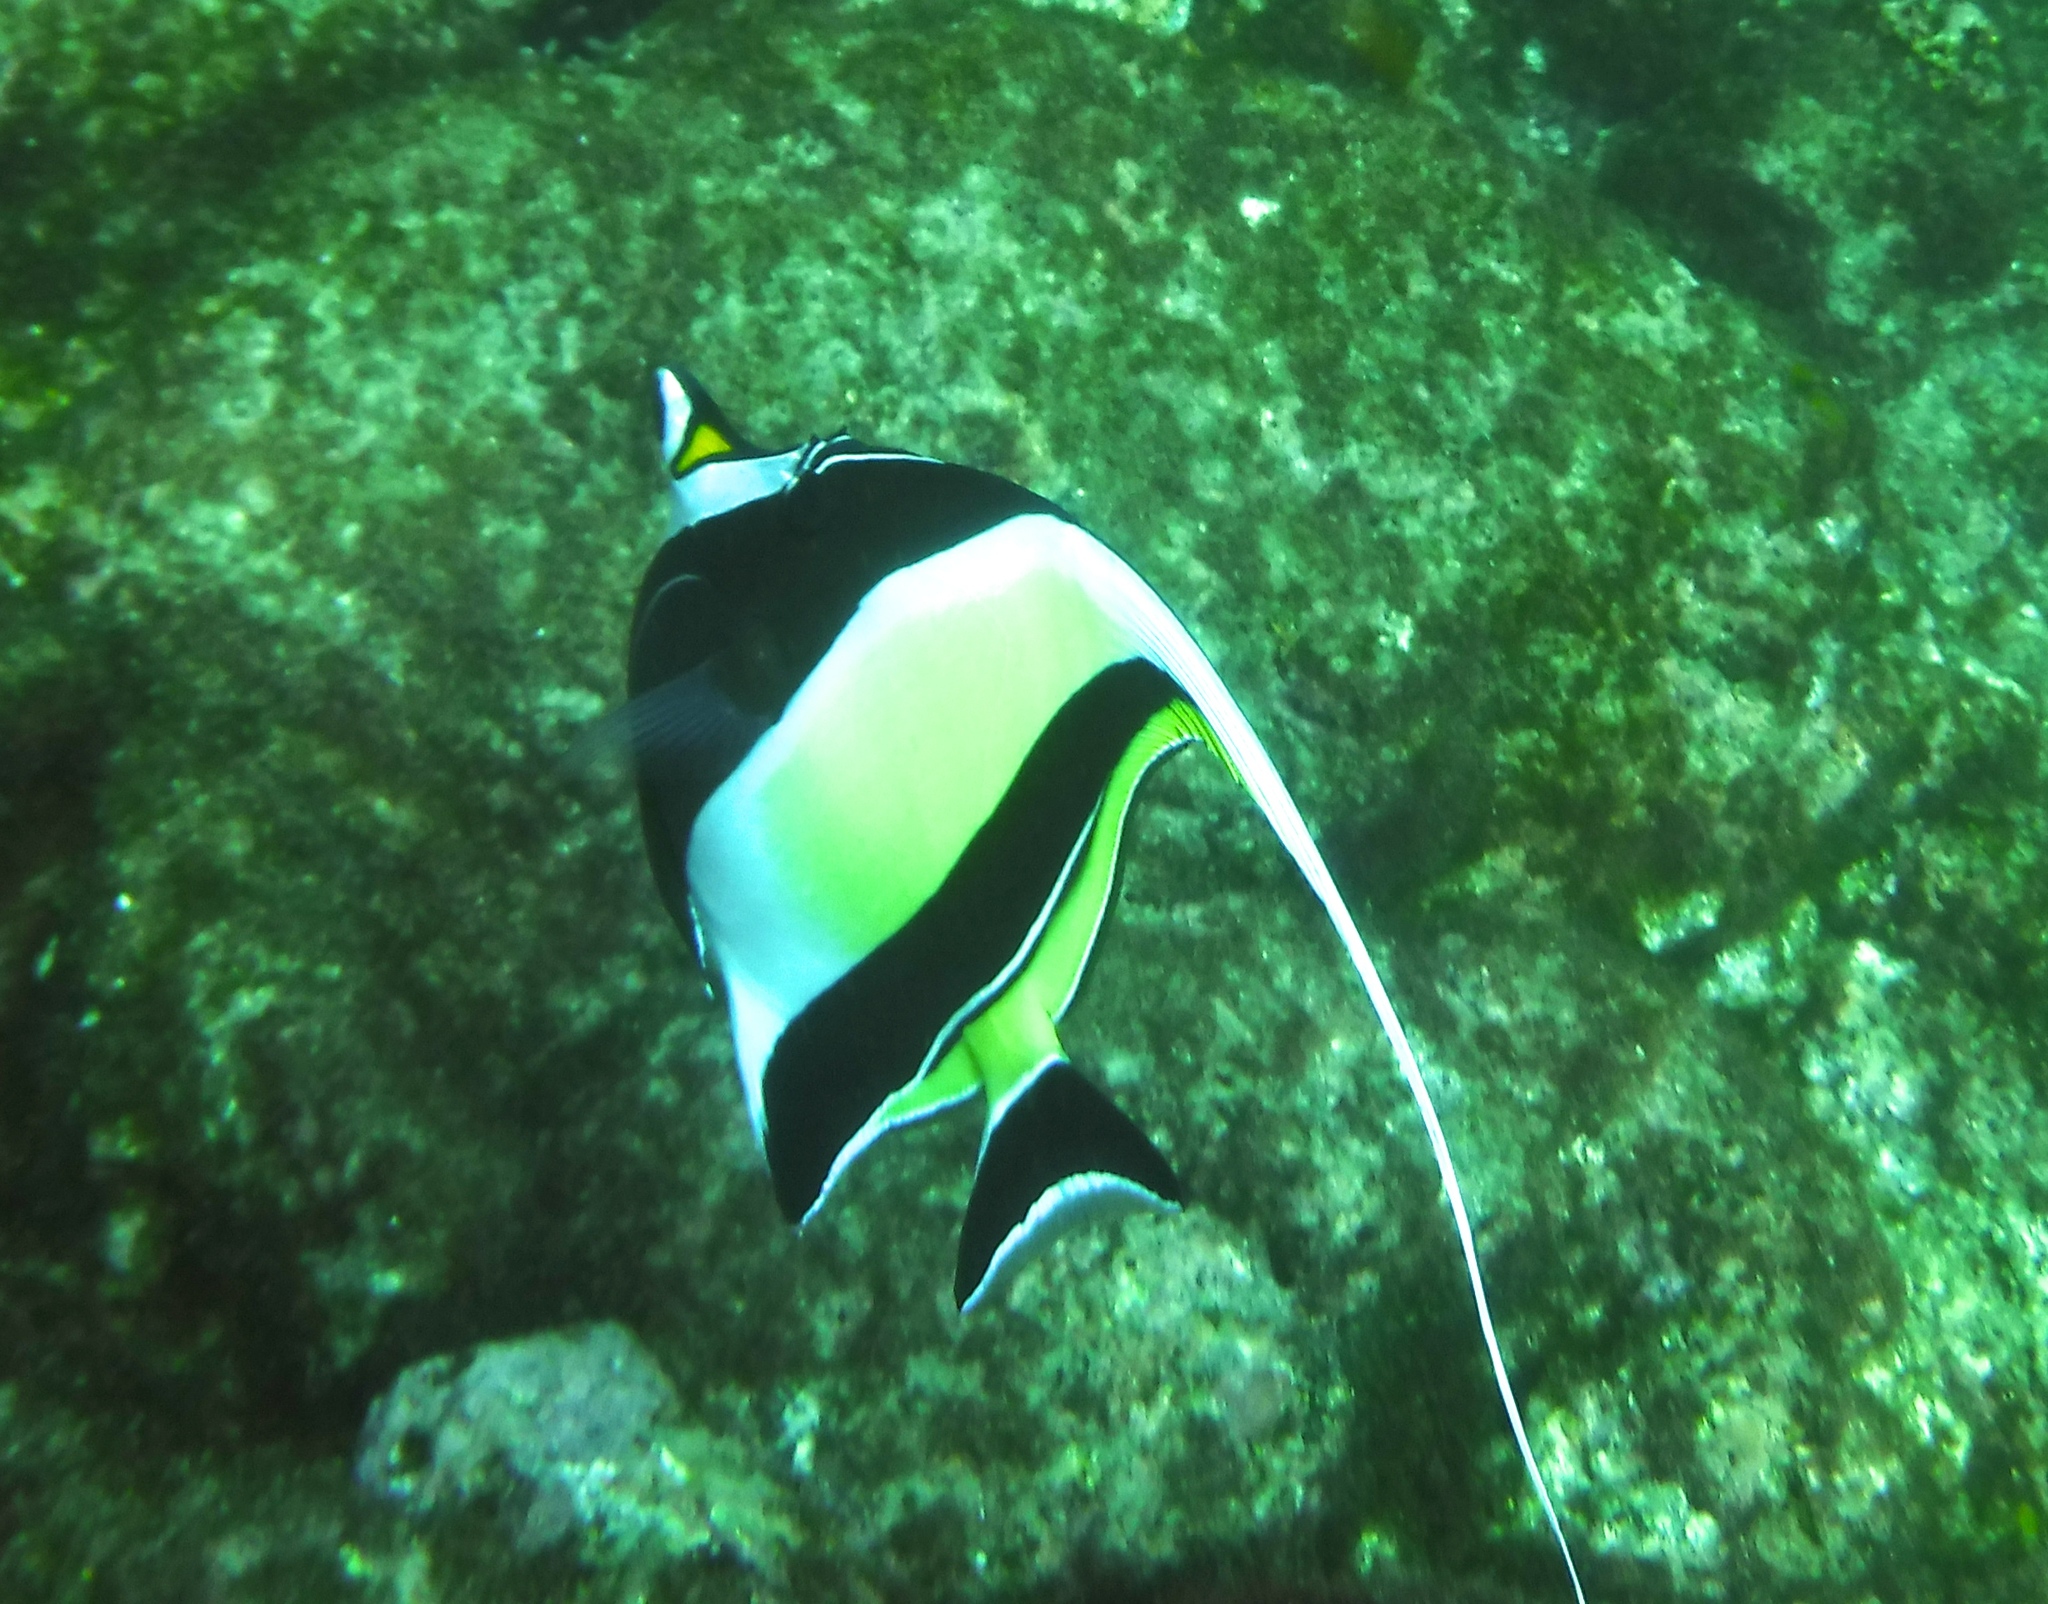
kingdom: Animalia
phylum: Chordata
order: Perciformes
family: Zanclidae
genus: Zanclus
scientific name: Zanclus cornutus
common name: Moorish idol
